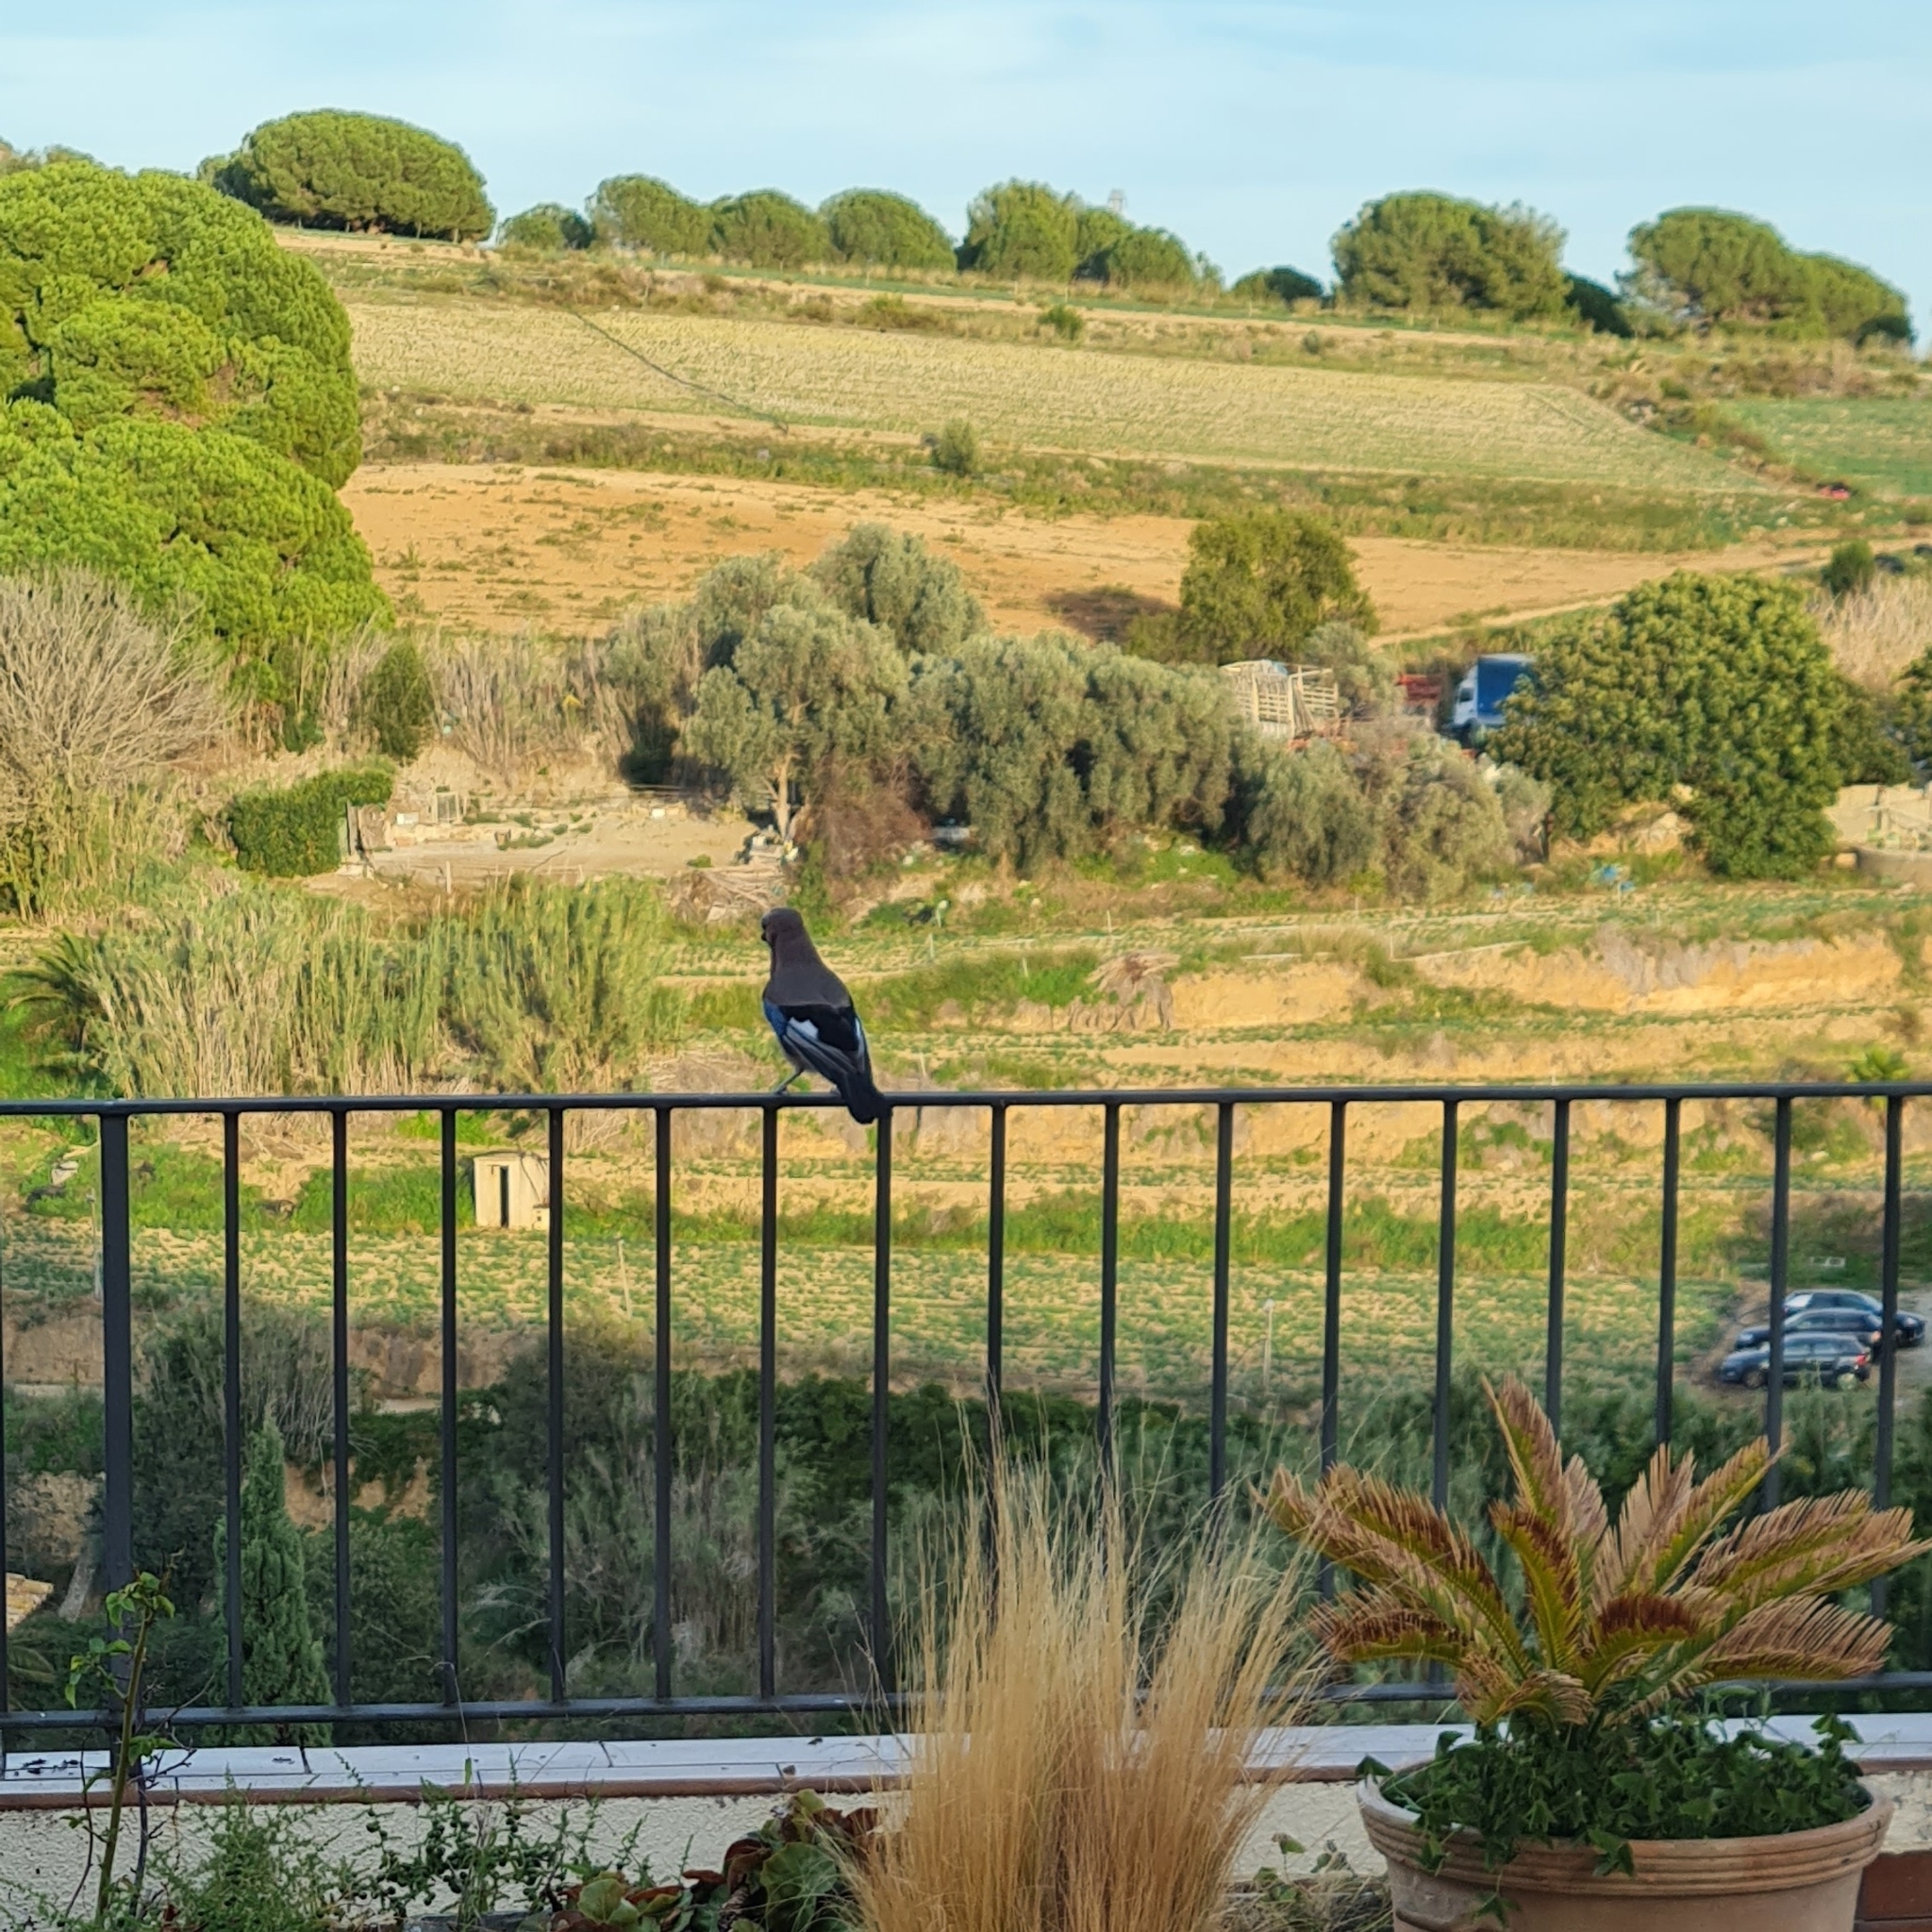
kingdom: Animalia
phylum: Chordata
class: Aves
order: Passeriformes
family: Corvidae
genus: Garrulus
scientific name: Garrulus glandarius
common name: Eurasian jay
